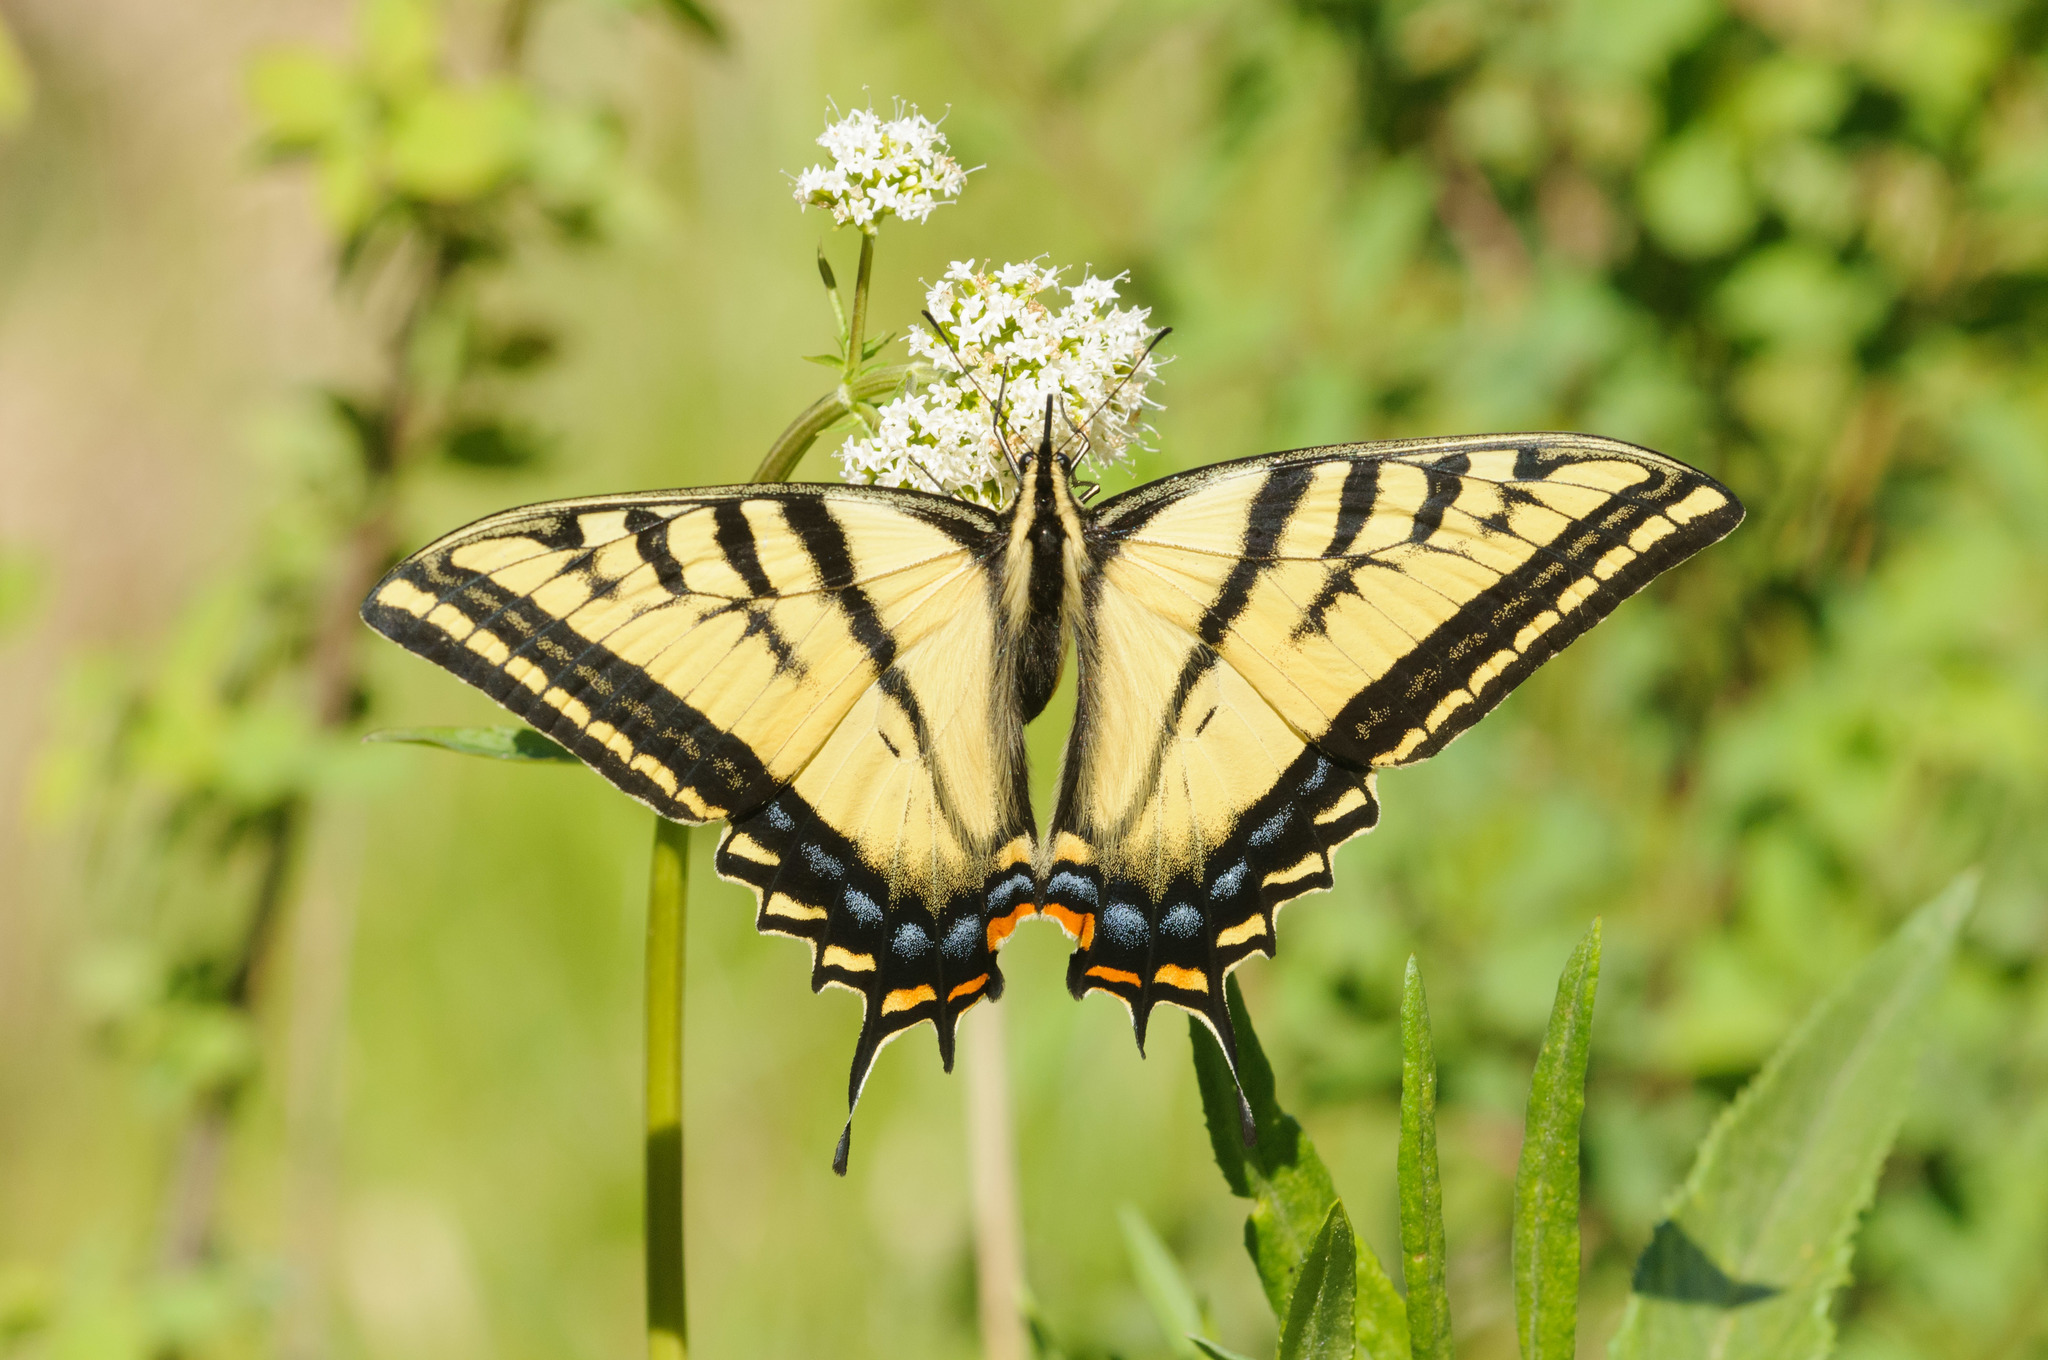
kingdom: Animalia
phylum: Arthropoda
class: Insecta
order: Lepidoptera
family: Papilionidae
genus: Papilio
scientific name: Papilio multicaudata
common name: Two-tailed tiger swallowtail
